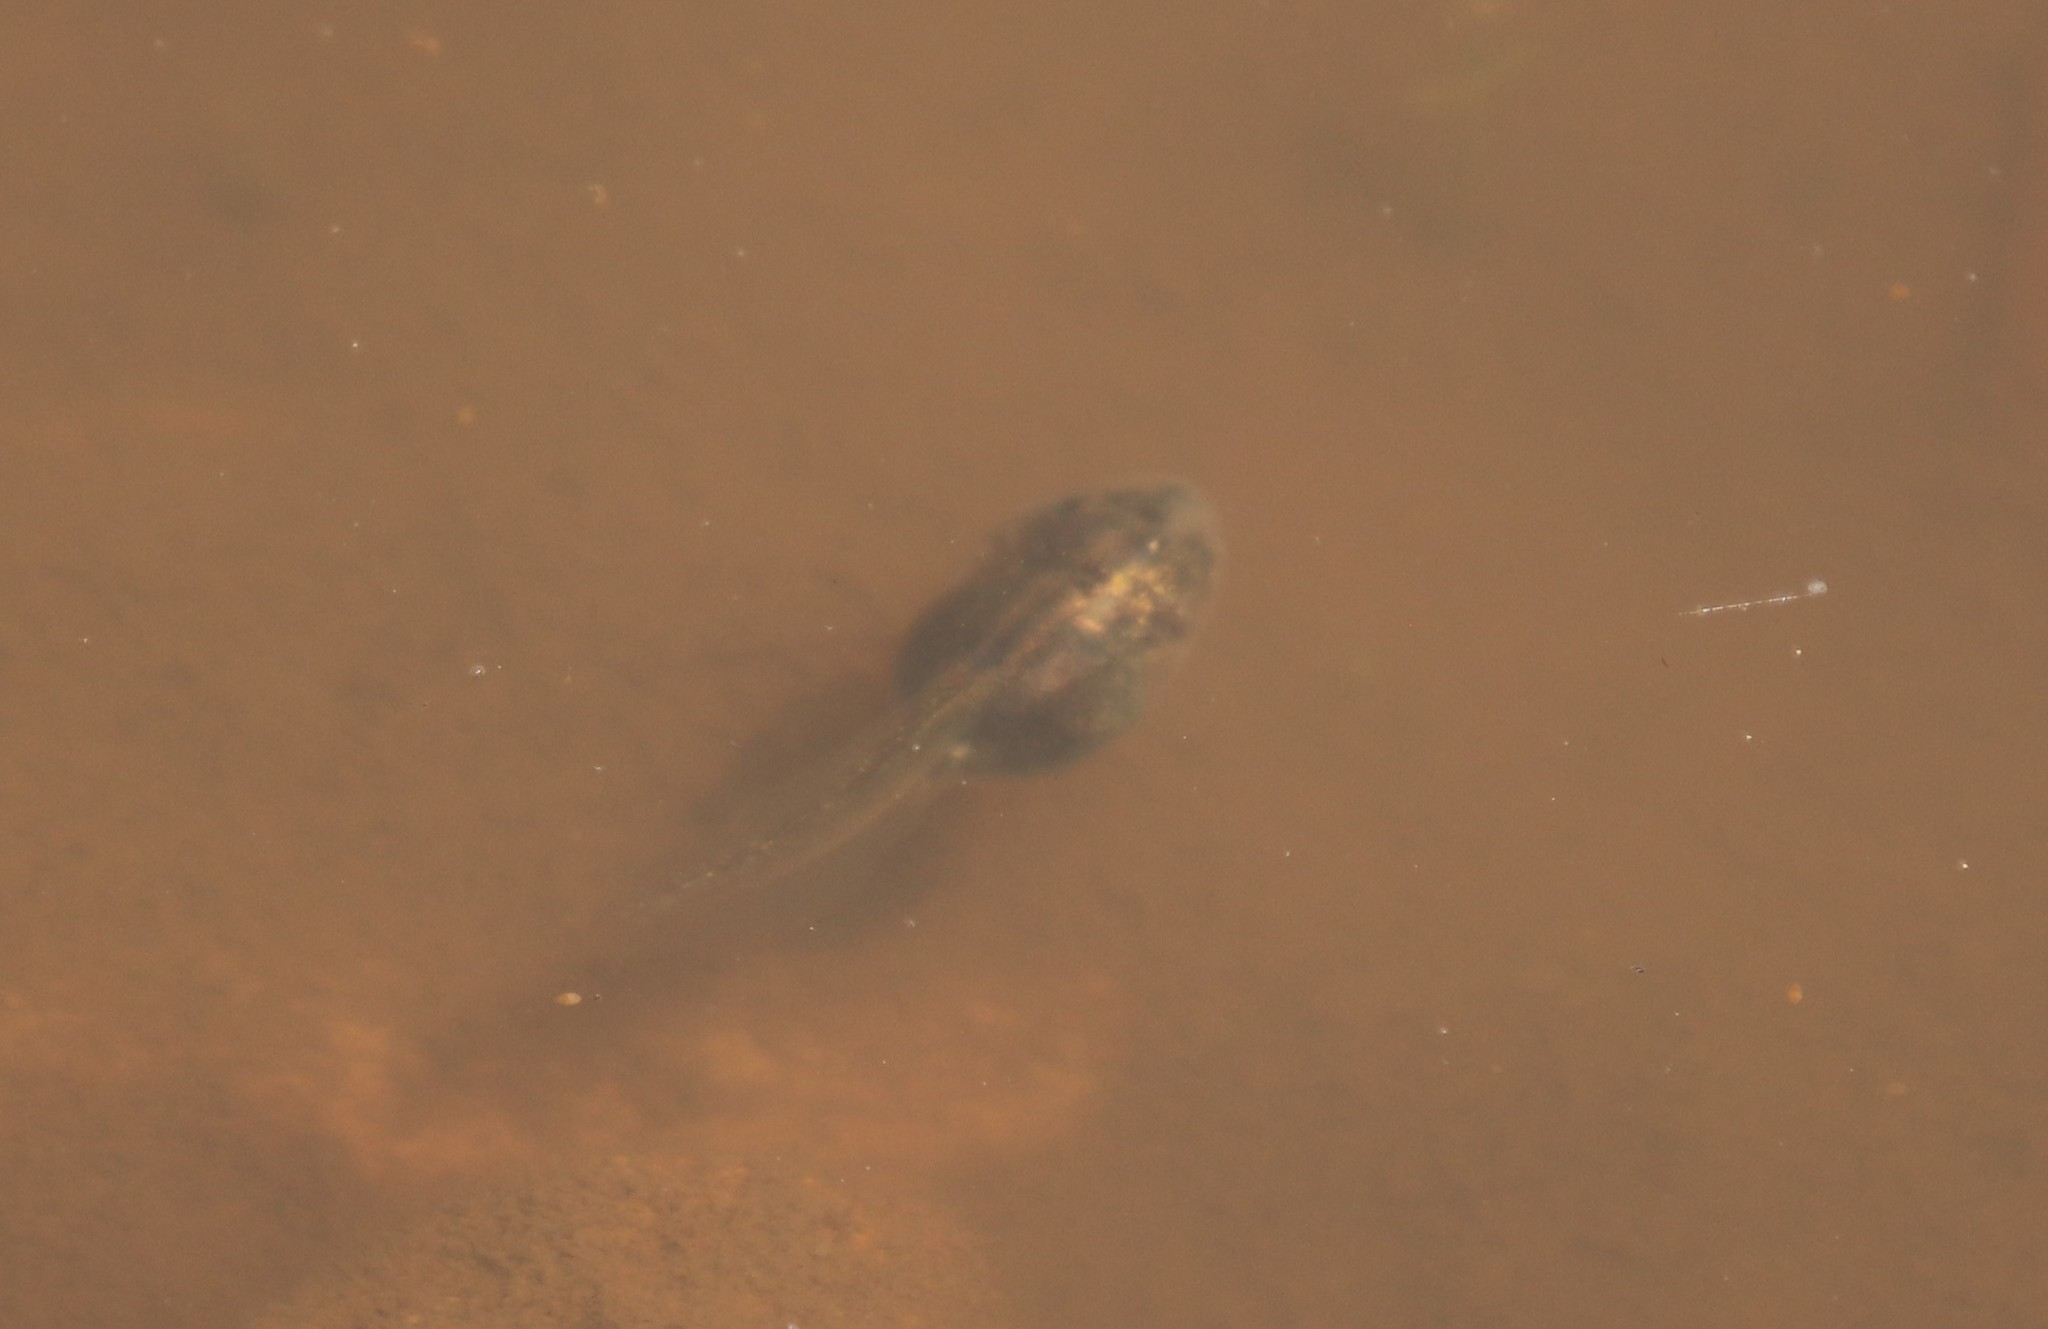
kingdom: Animalia
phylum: Chordata
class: Amphibia
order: Anura
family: Scaphiopodidae
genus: Spea
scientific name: Spea hammondii
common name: Western spadefoot toad
